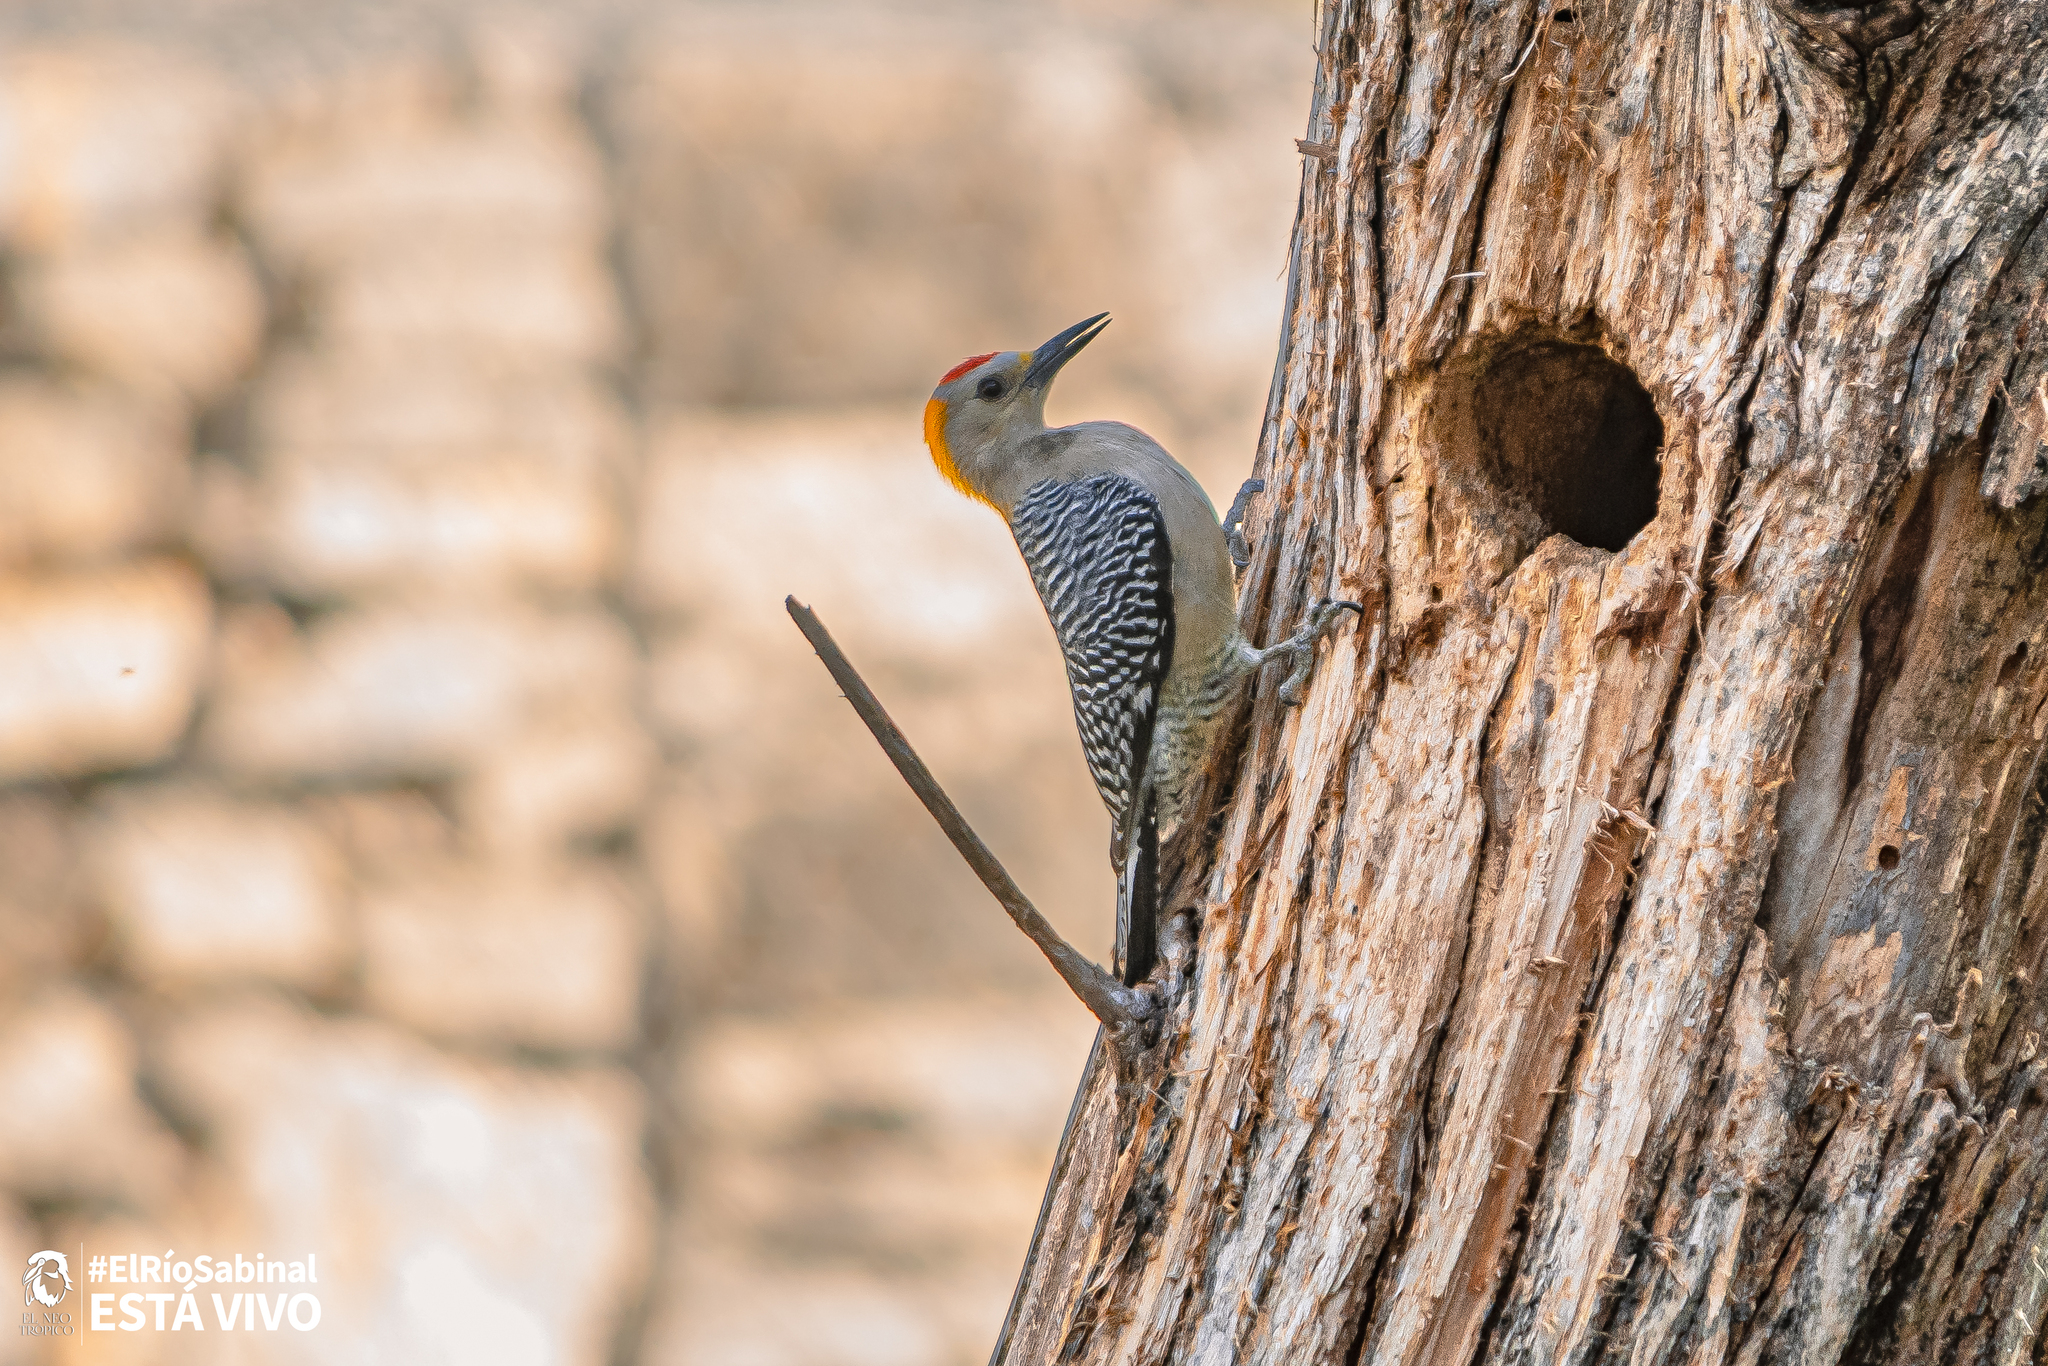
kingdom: Animalia
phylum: Chordata
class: Aves
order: Piciformes
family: Picidae
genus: Melanerpes
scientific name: Melanerpes aurifrons
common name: Golden-fronted woodpecker
